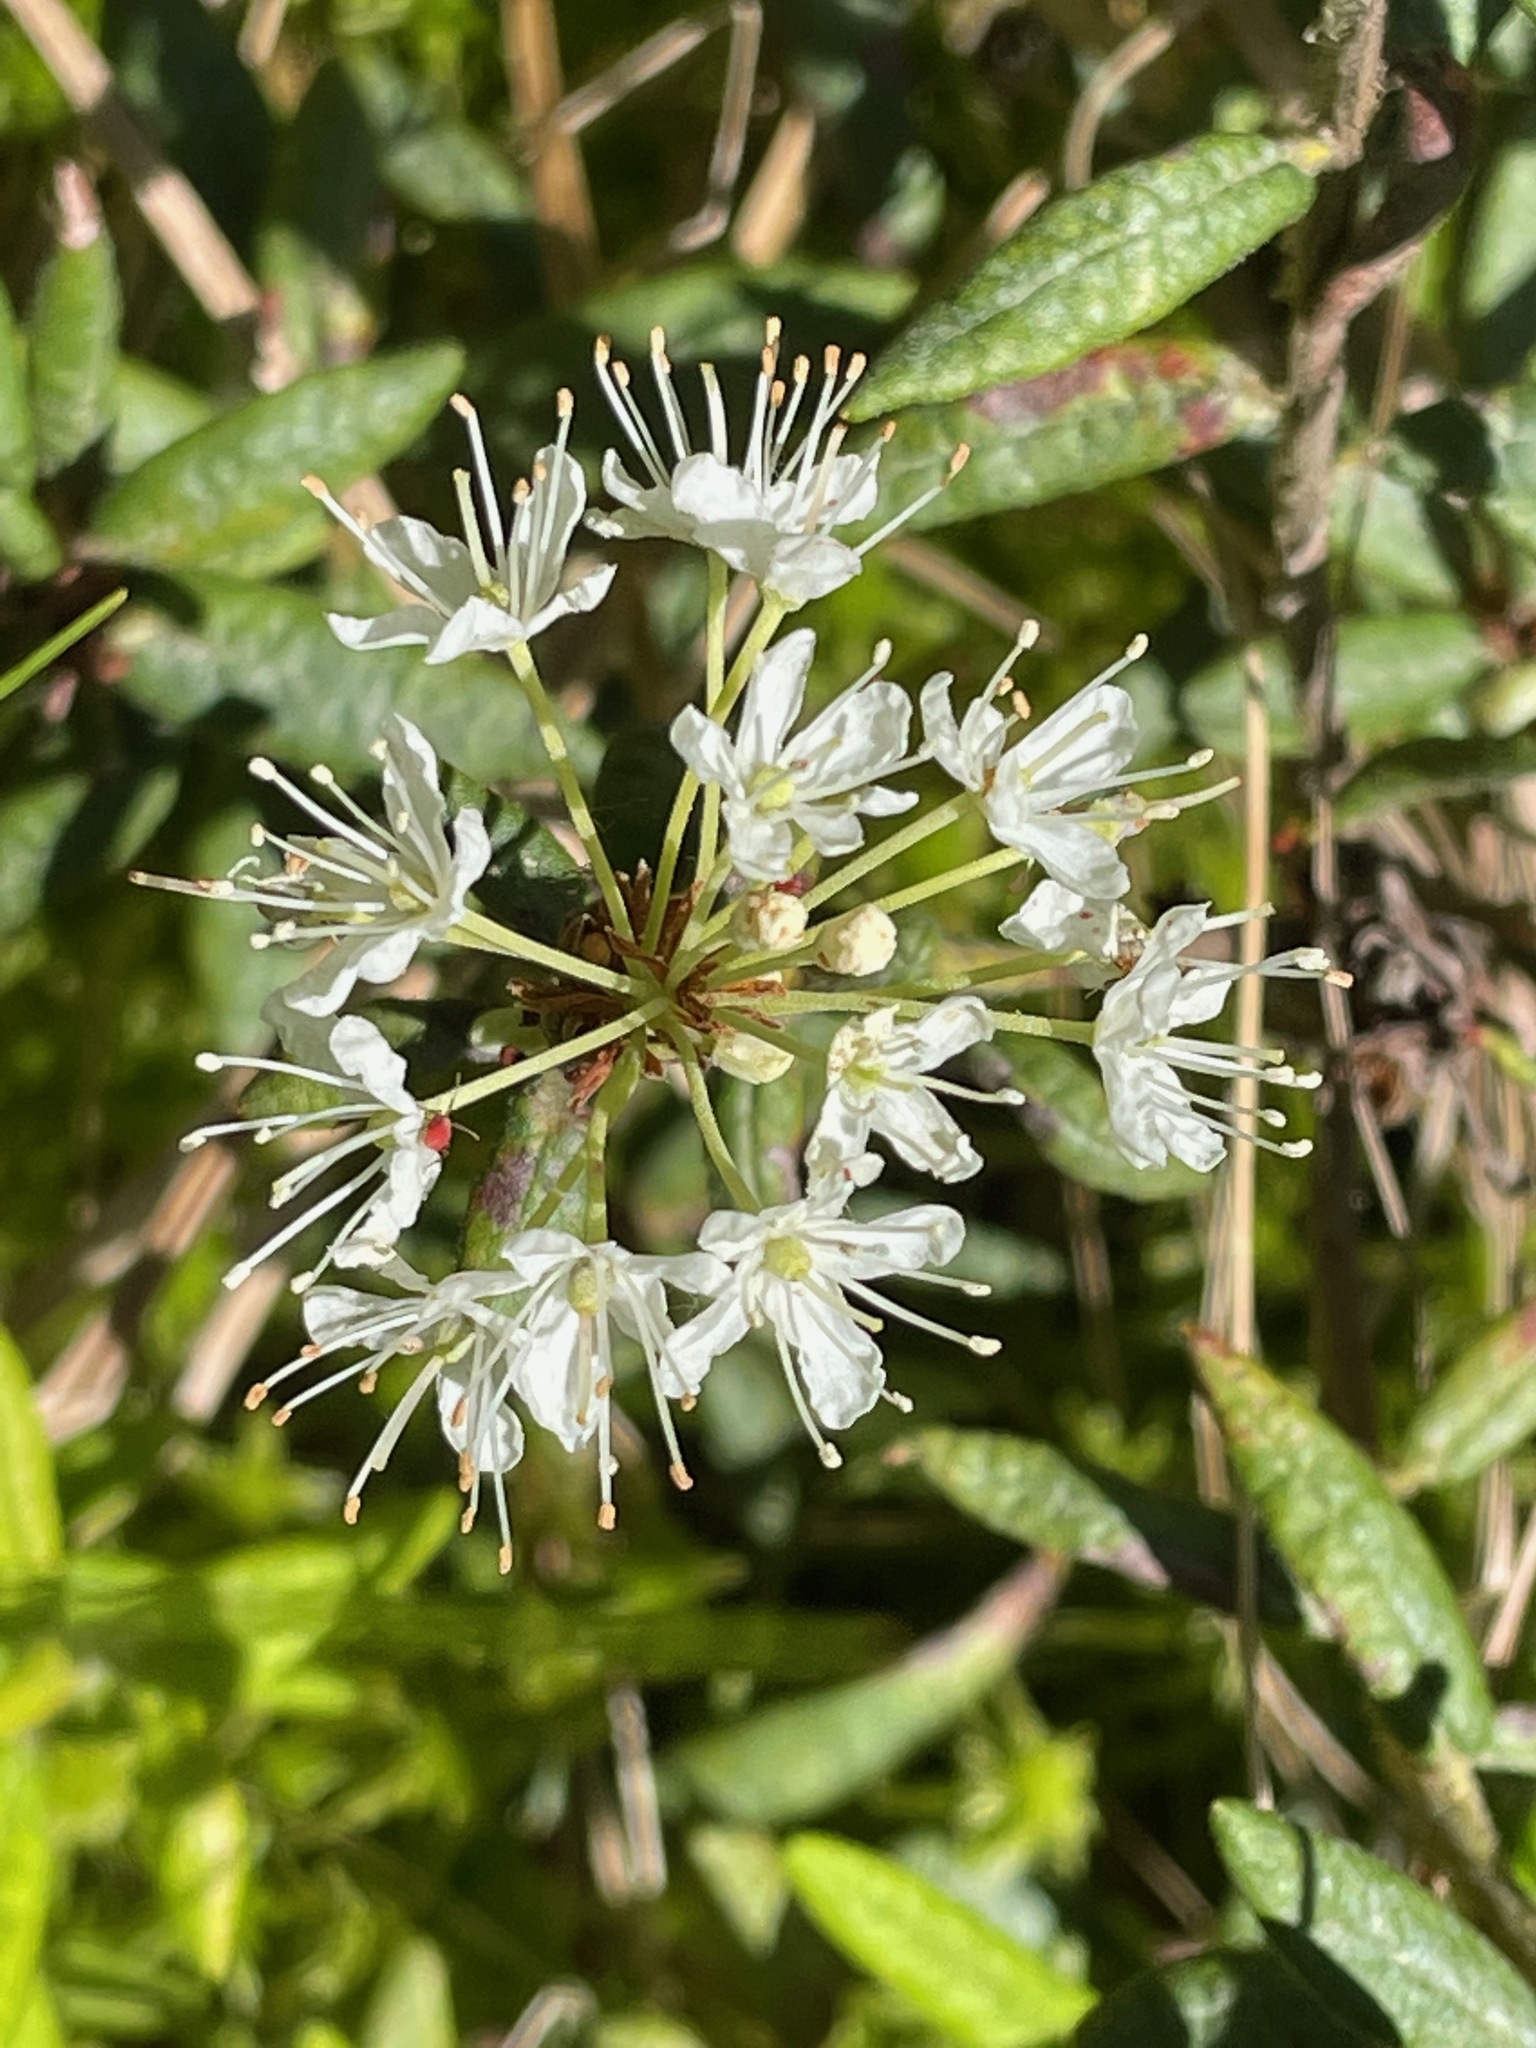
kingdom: Plantae
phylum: Tracheophyta
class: Magnoliopsida
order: Ericales
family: Ericaceae
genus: Rhododendron
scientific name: Rhododendron groenlandicum
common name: Bog labrador tea
